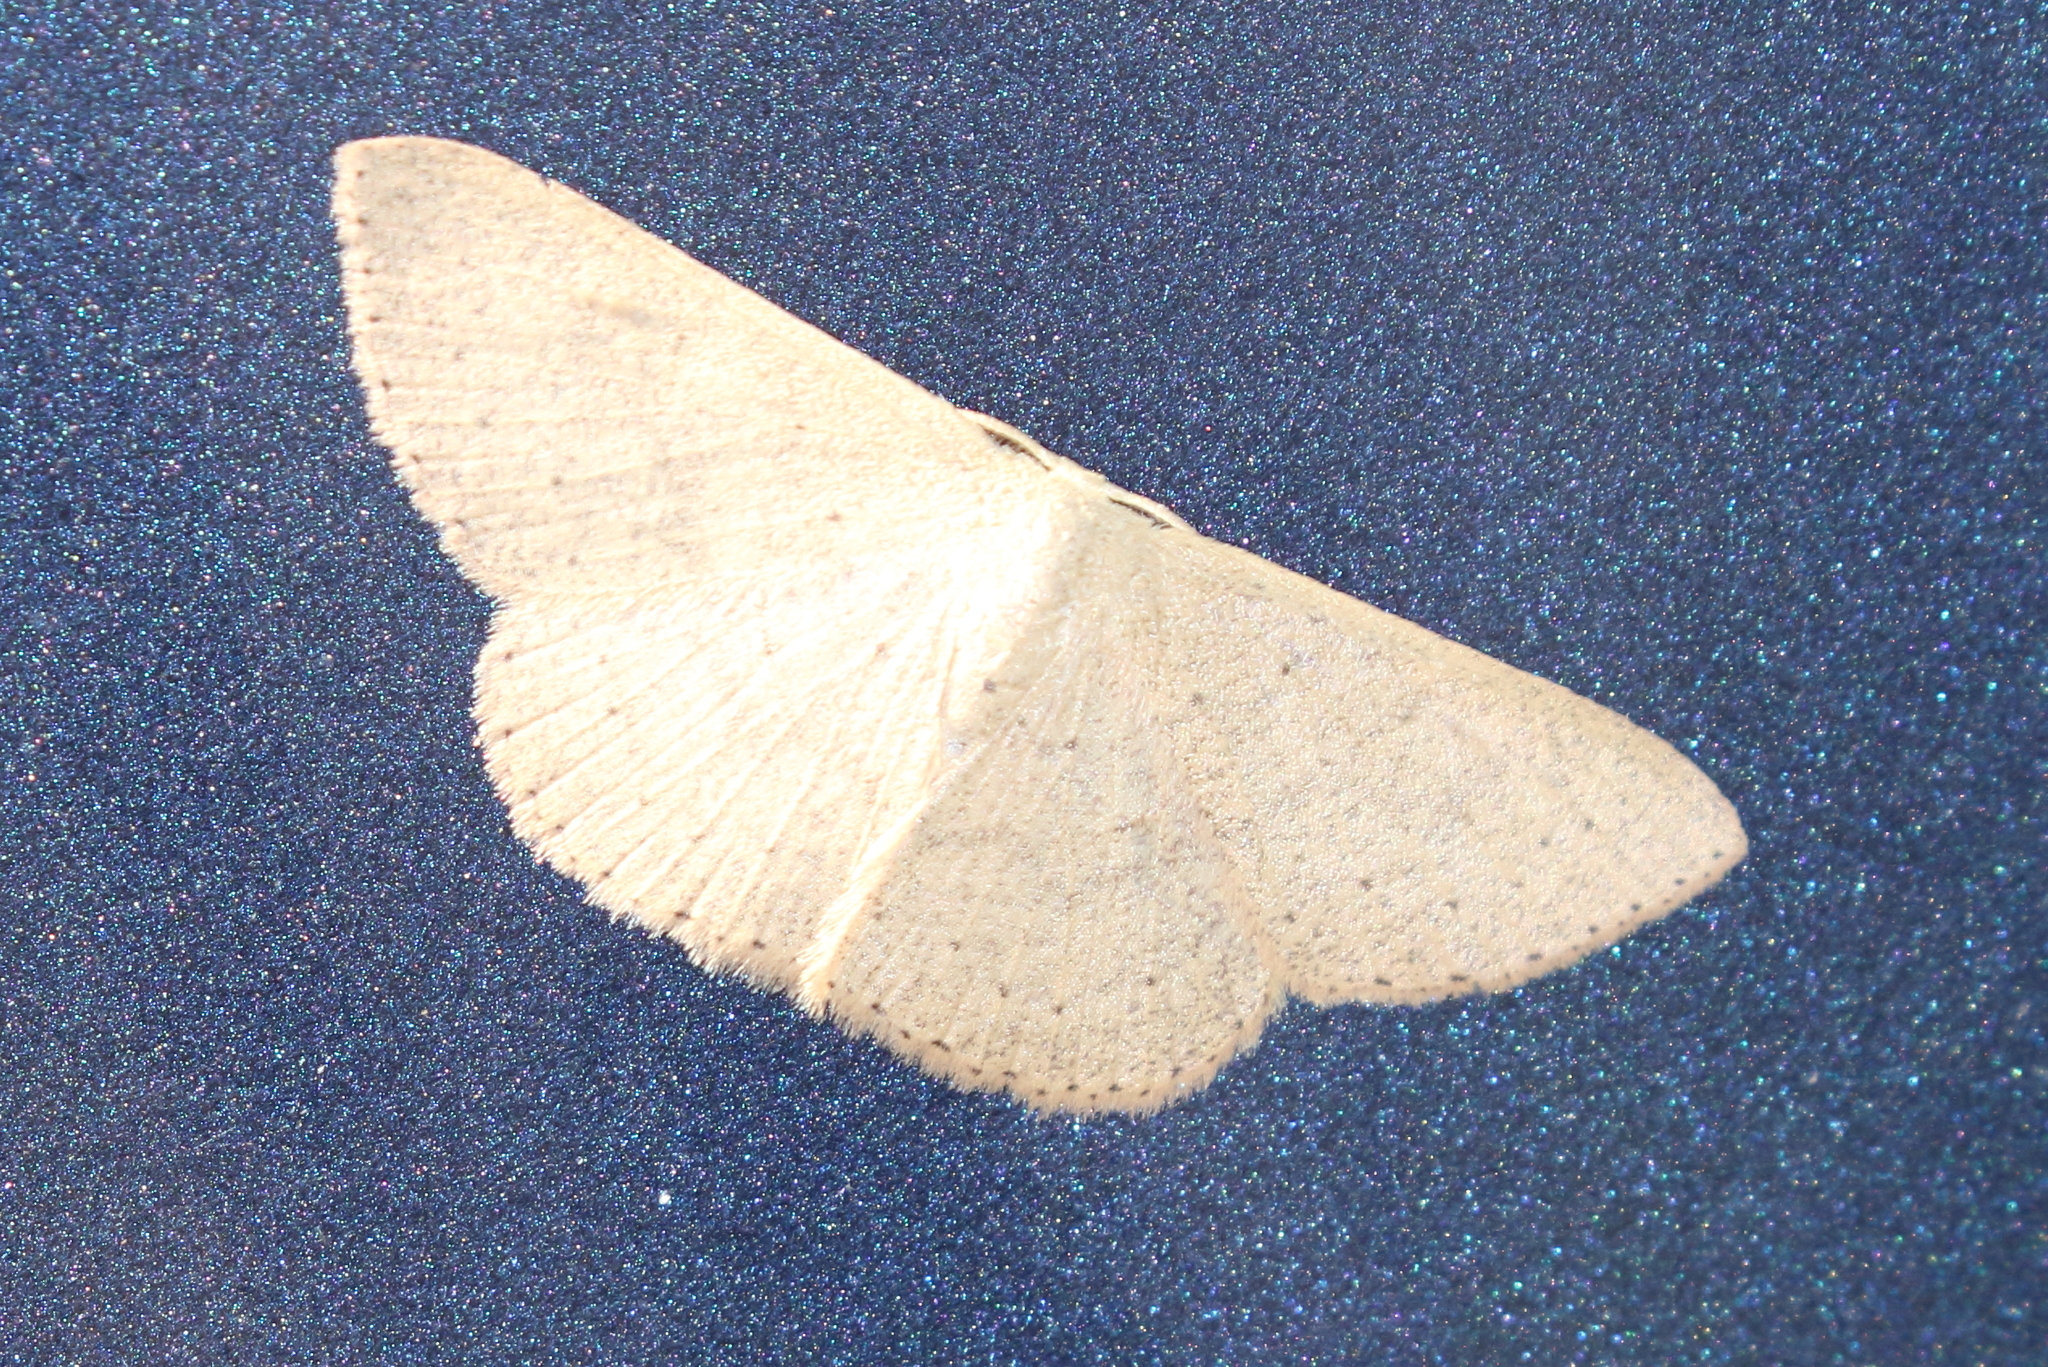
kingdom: Animalia
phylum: Arthropoda
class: Insecta
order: Lepidoptera
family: Geometridae
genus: Cyclophora
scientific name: Cyclophora obstataria
